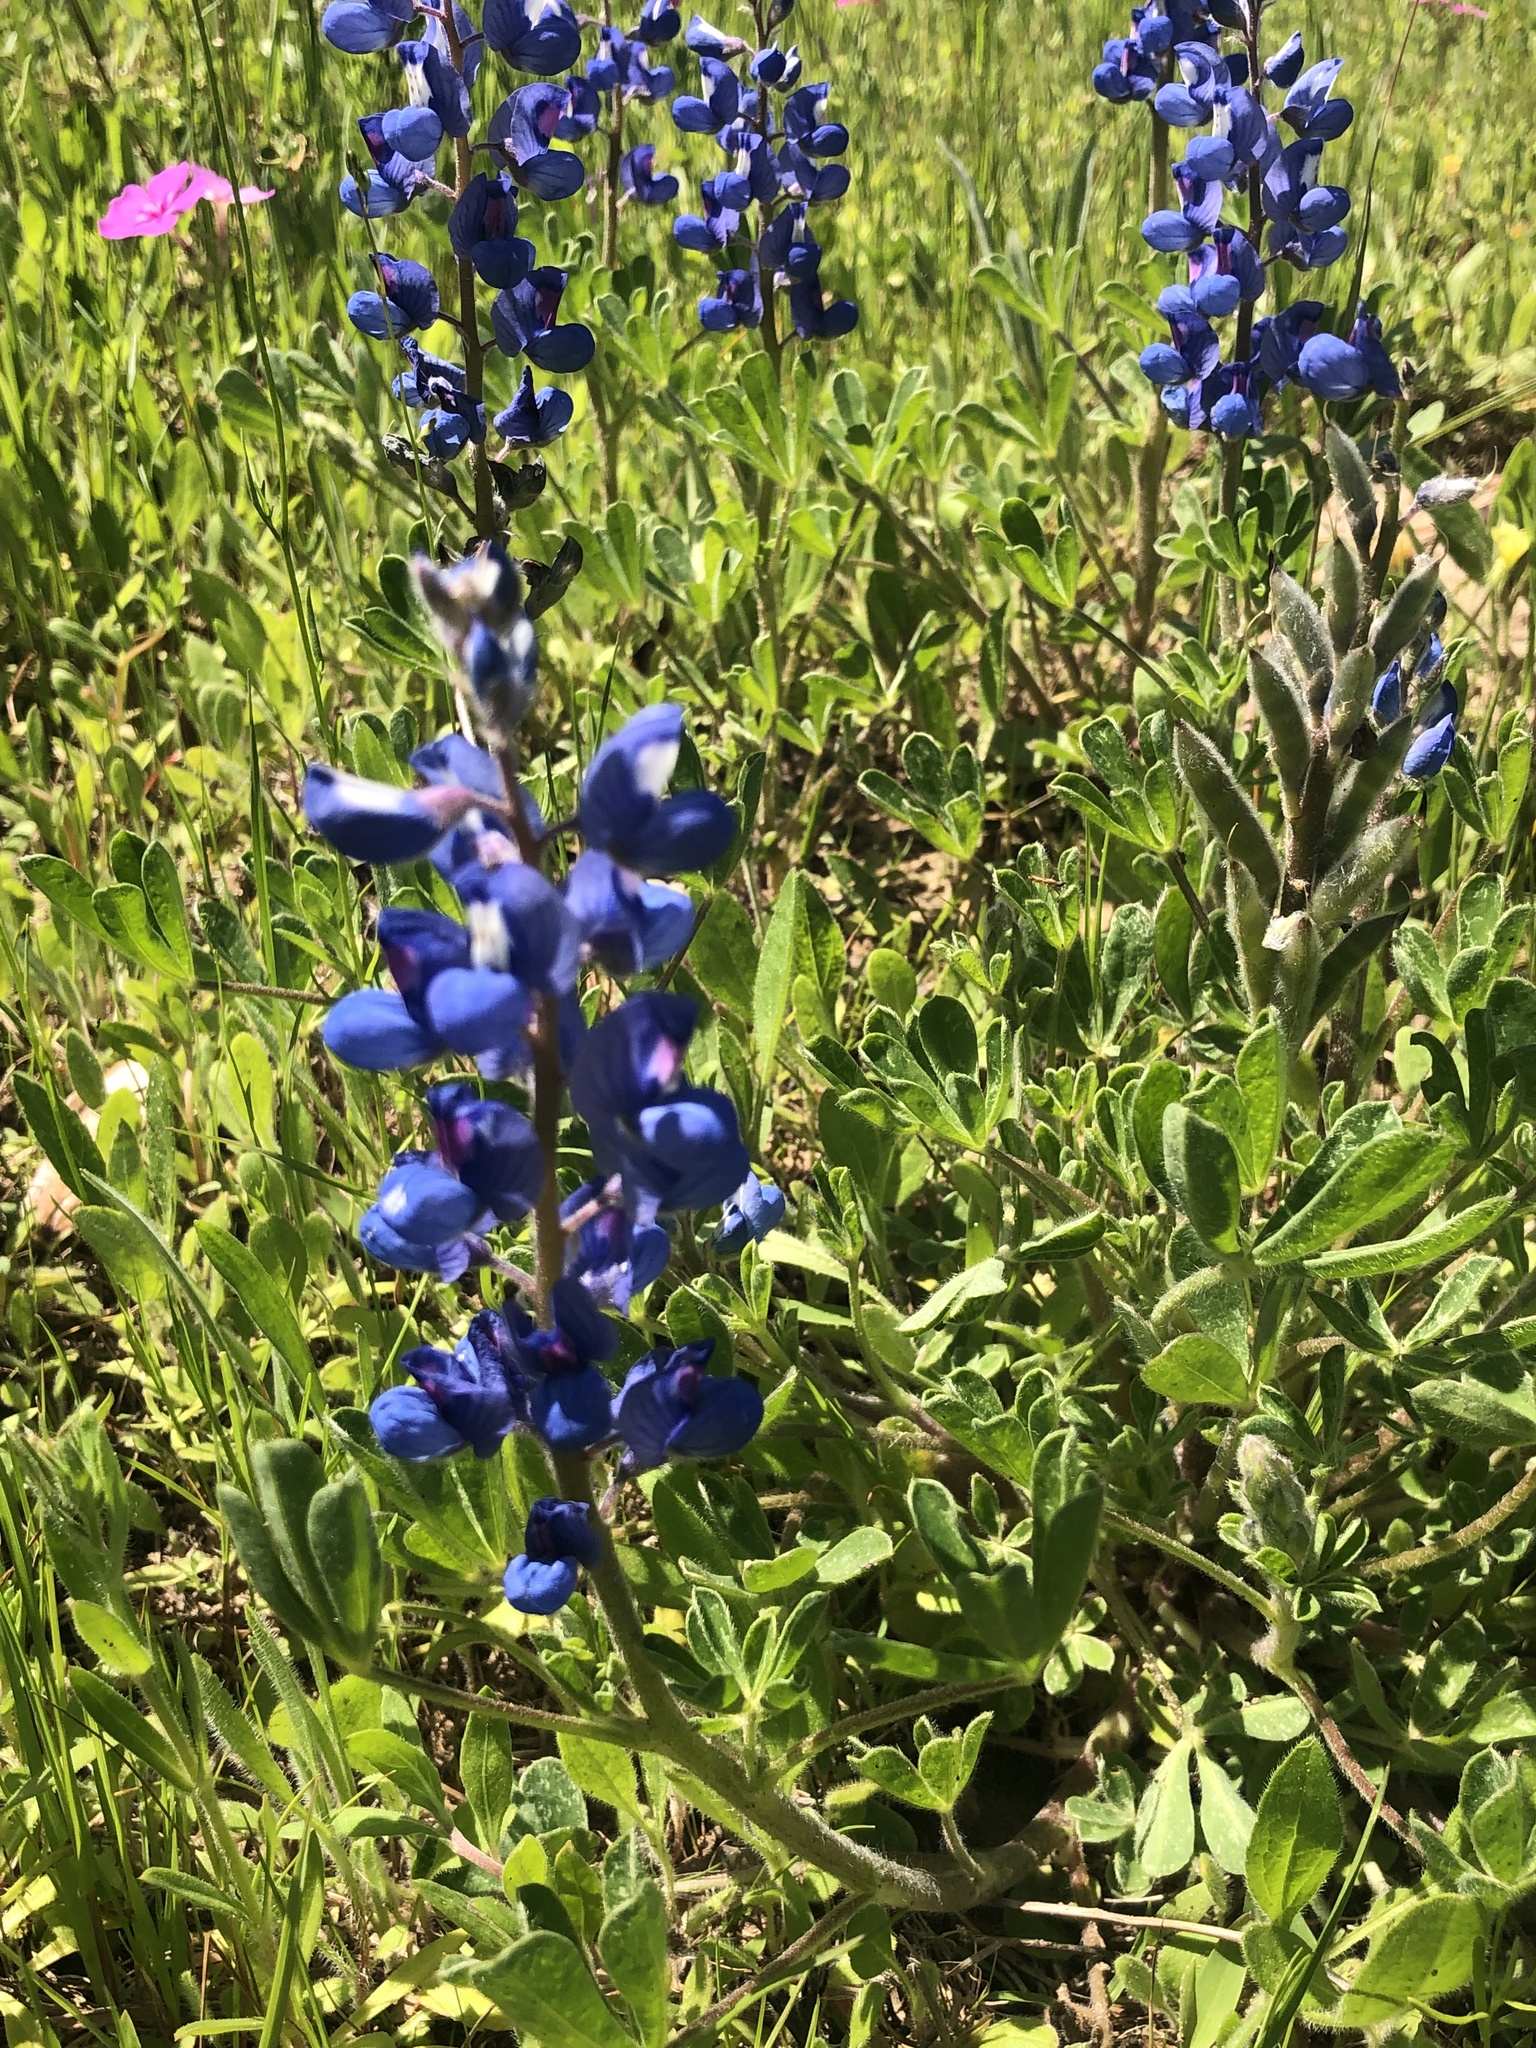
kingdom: Plantae
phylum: Tracheophyta
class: Magnoliopsida
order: Fabales
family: Fabaceae
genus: Lupinus
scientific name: Lupinus subcarnosus
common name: Texas bluebonnet
